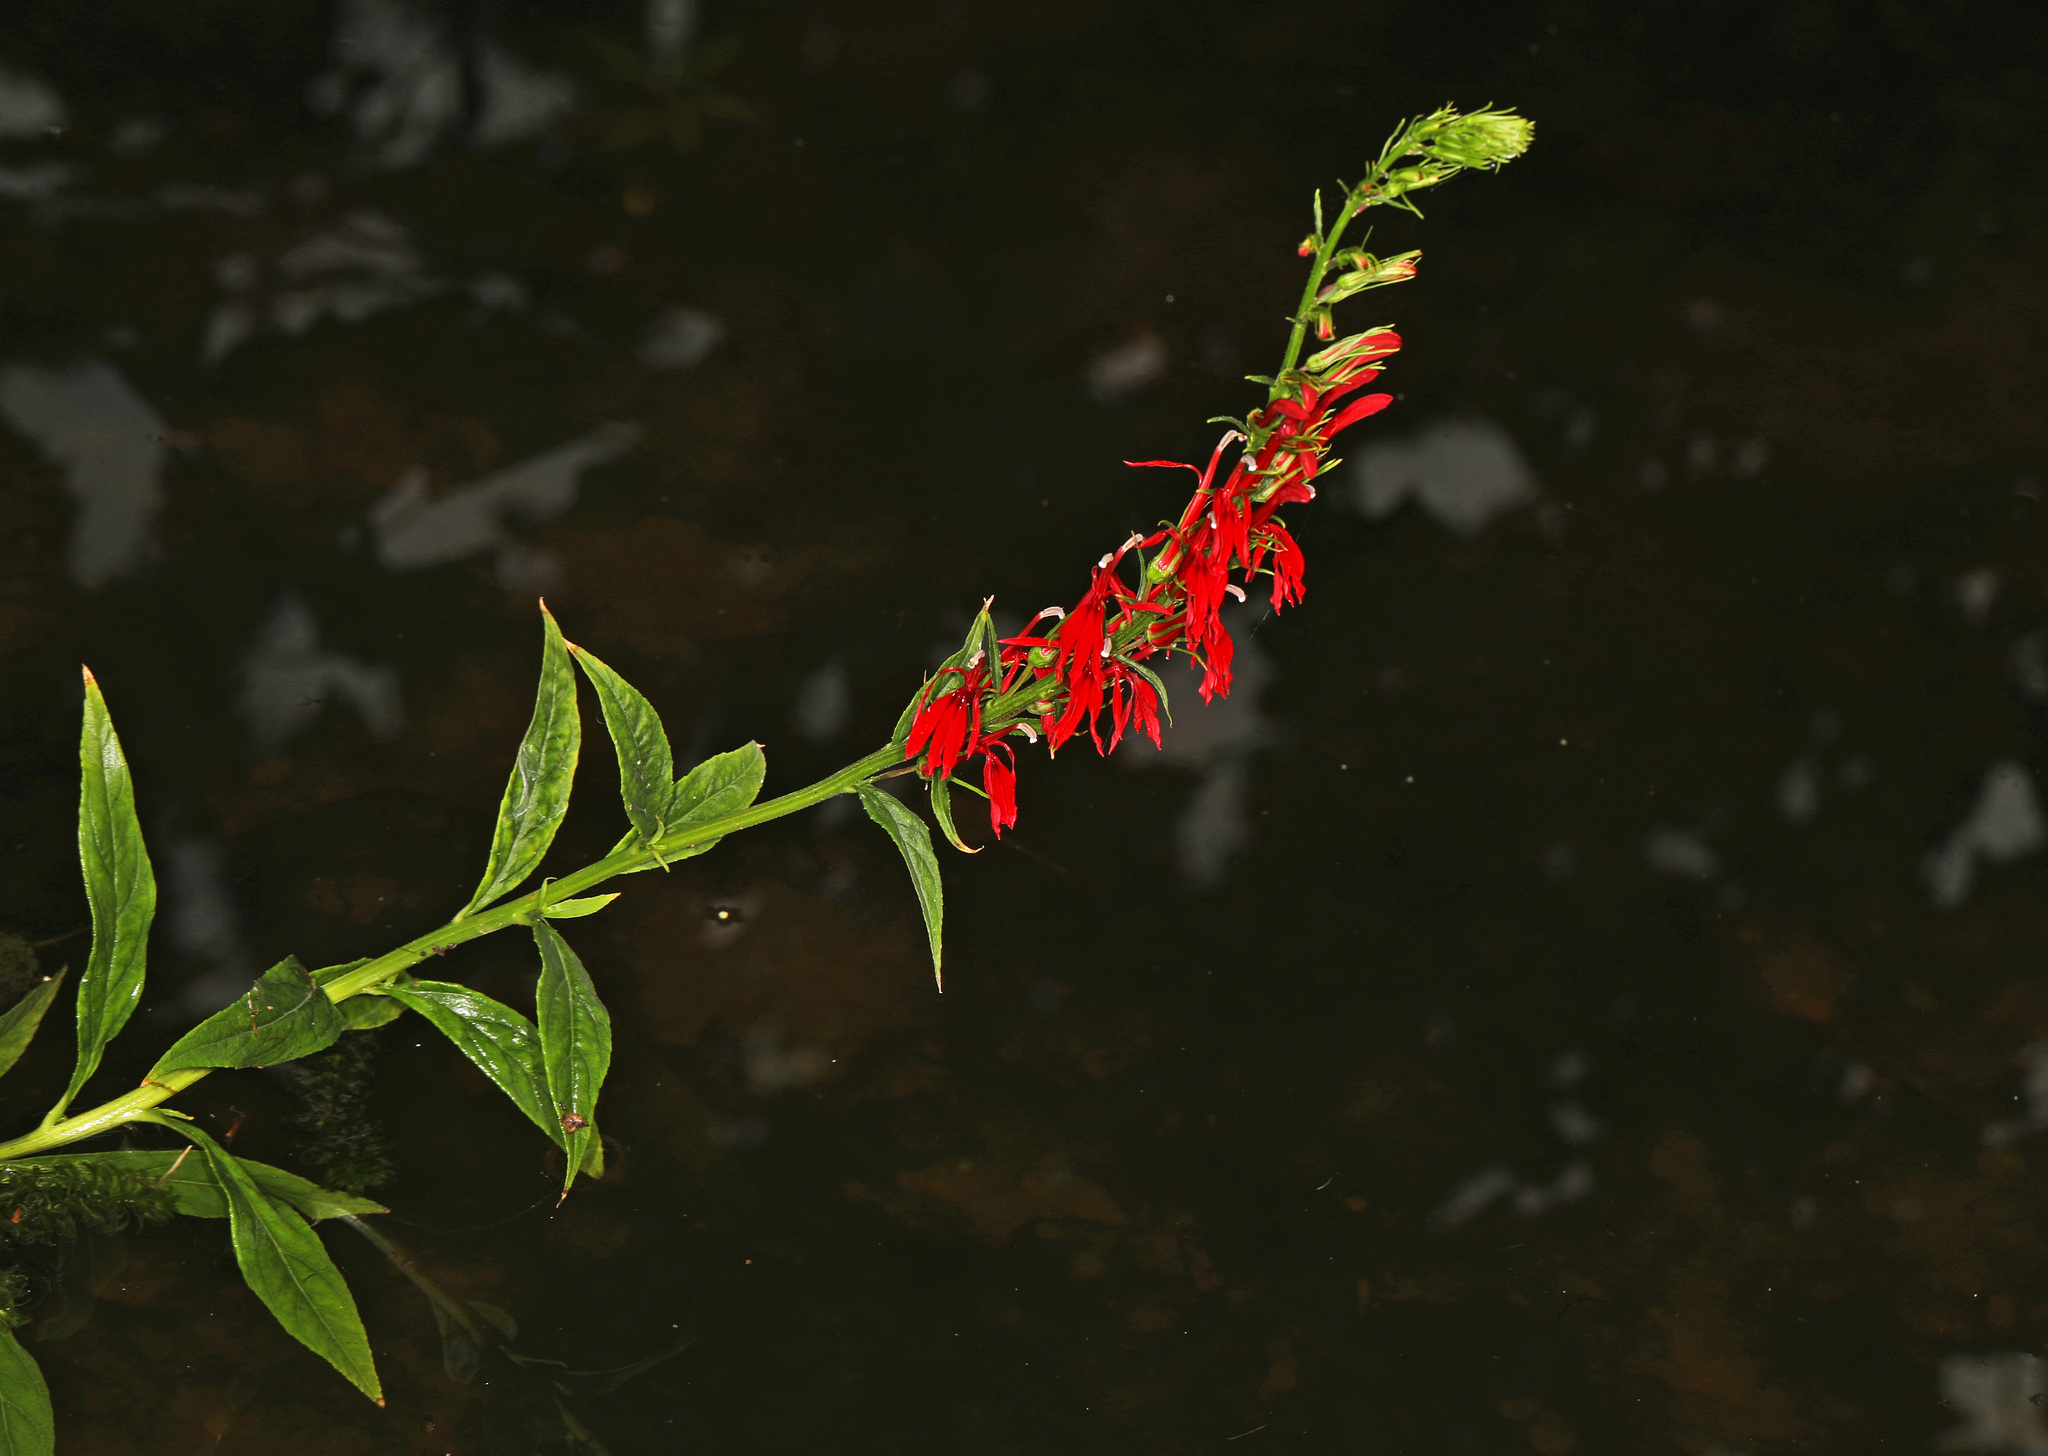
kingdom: Plantae
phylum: Tracheophyta
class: Magnoliopsida
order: Asterales
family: Campanulaceae
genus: Lobelia
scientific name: Lobelia cardinalis
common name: Cardinal flower
